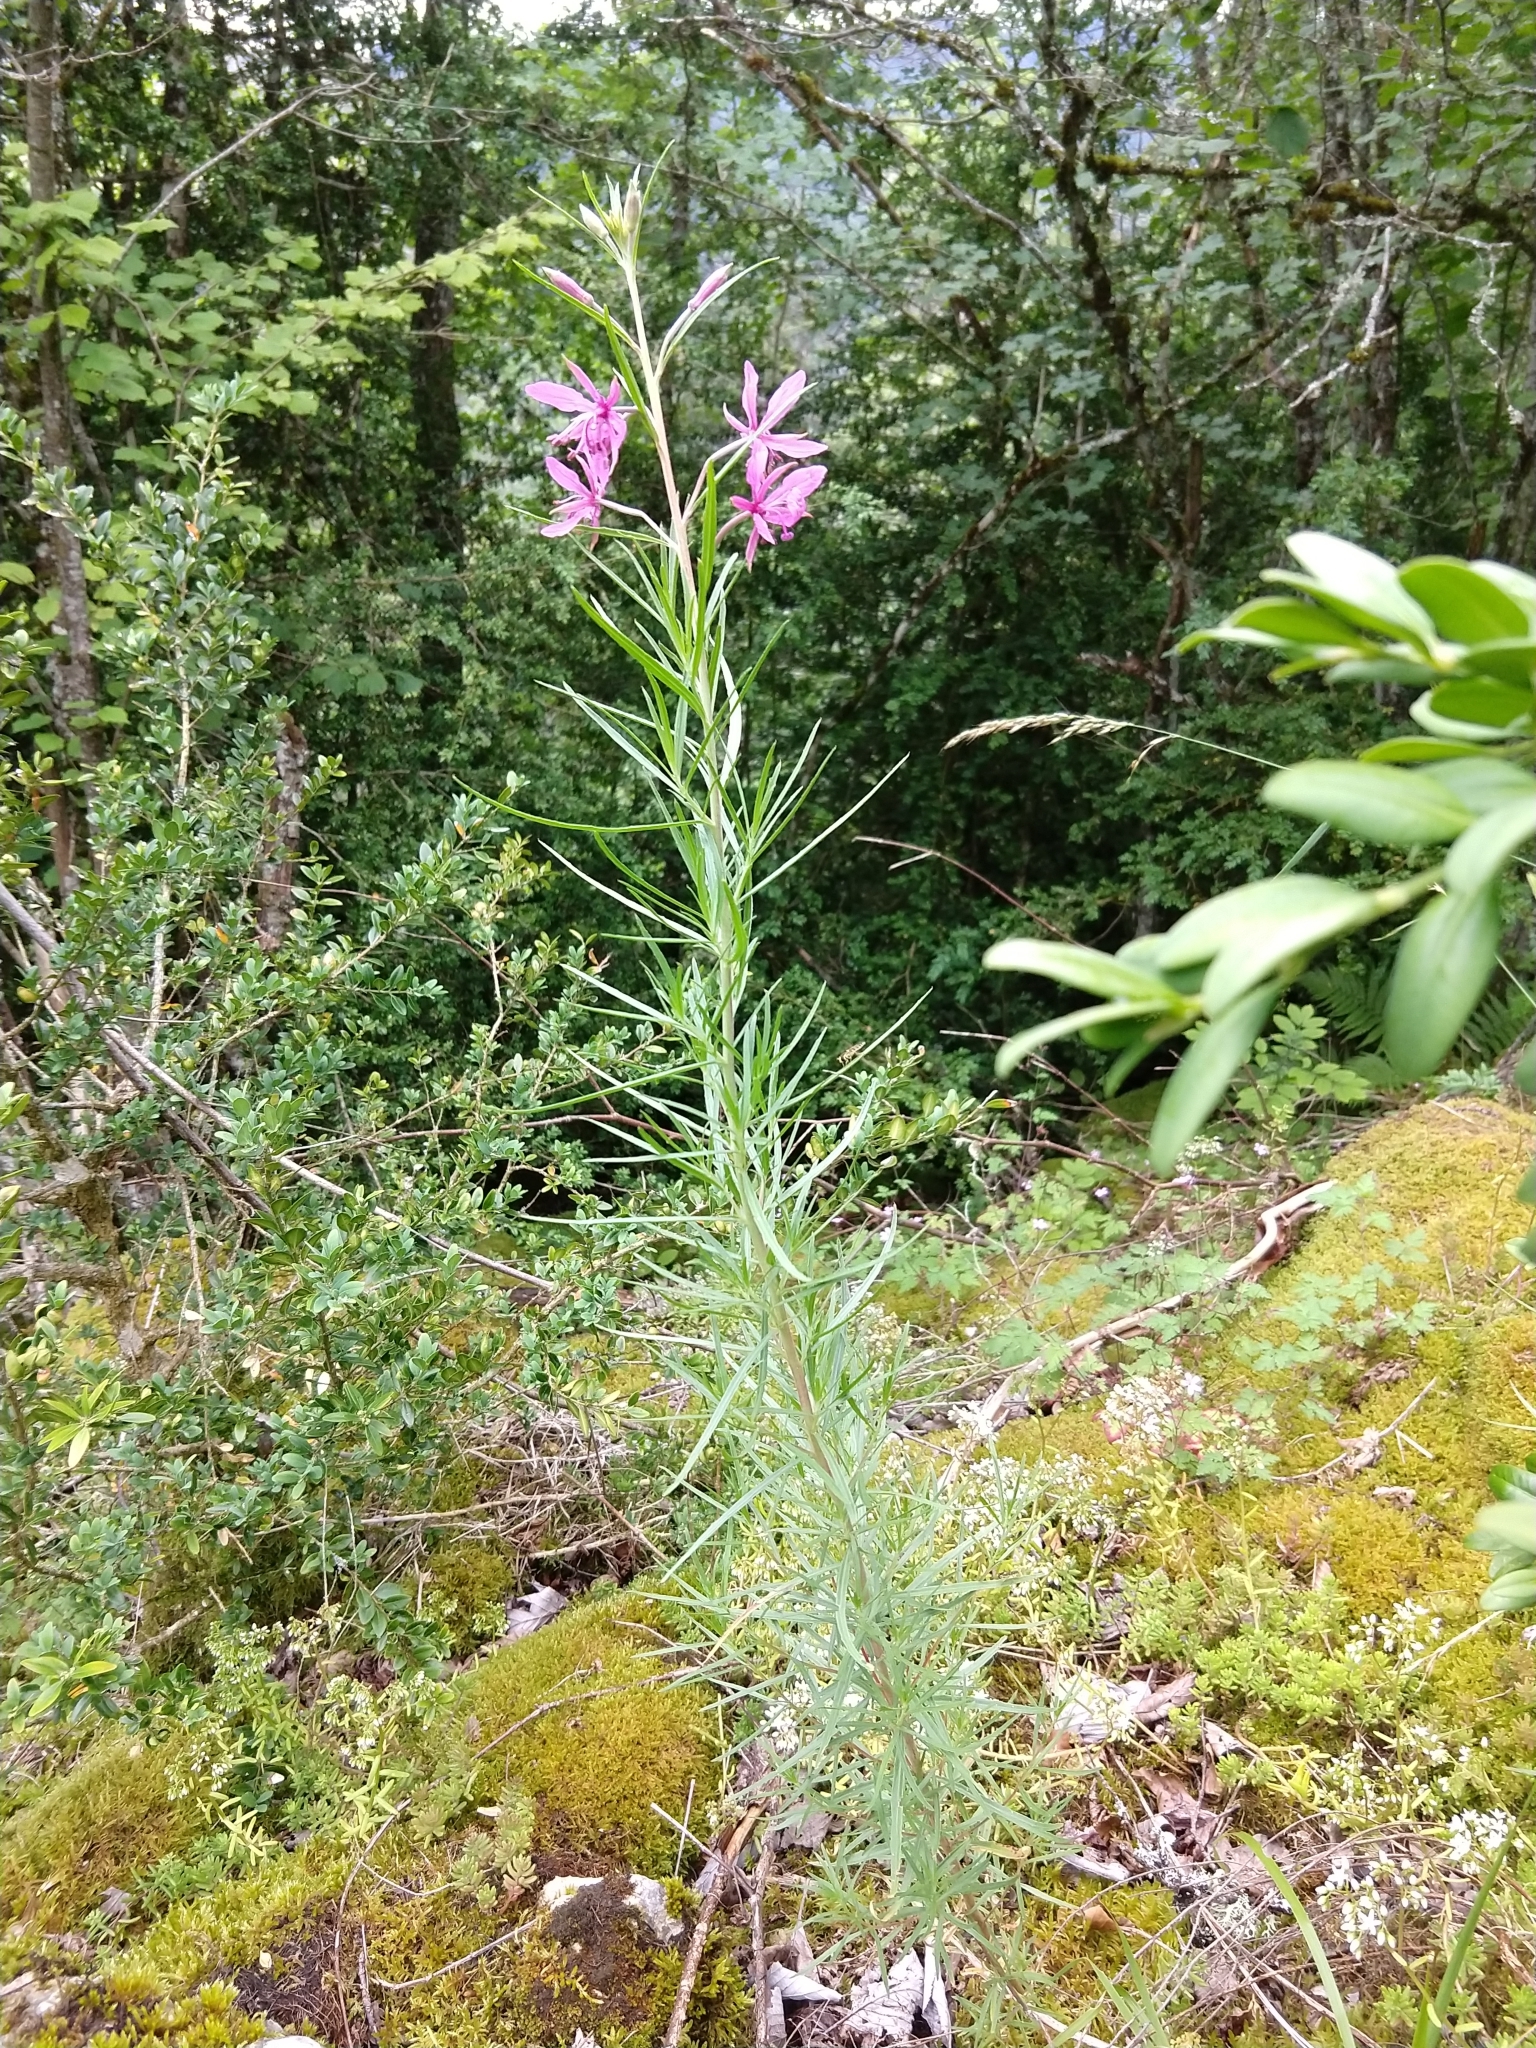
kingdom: Plantae
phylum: Tracheophyta
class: Magnoliopsida
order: Myrtales
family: Onagraceae
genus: Chamaenerion
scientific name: Chamaenerion dodonaei
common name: Rosemary-leaved willowherb
